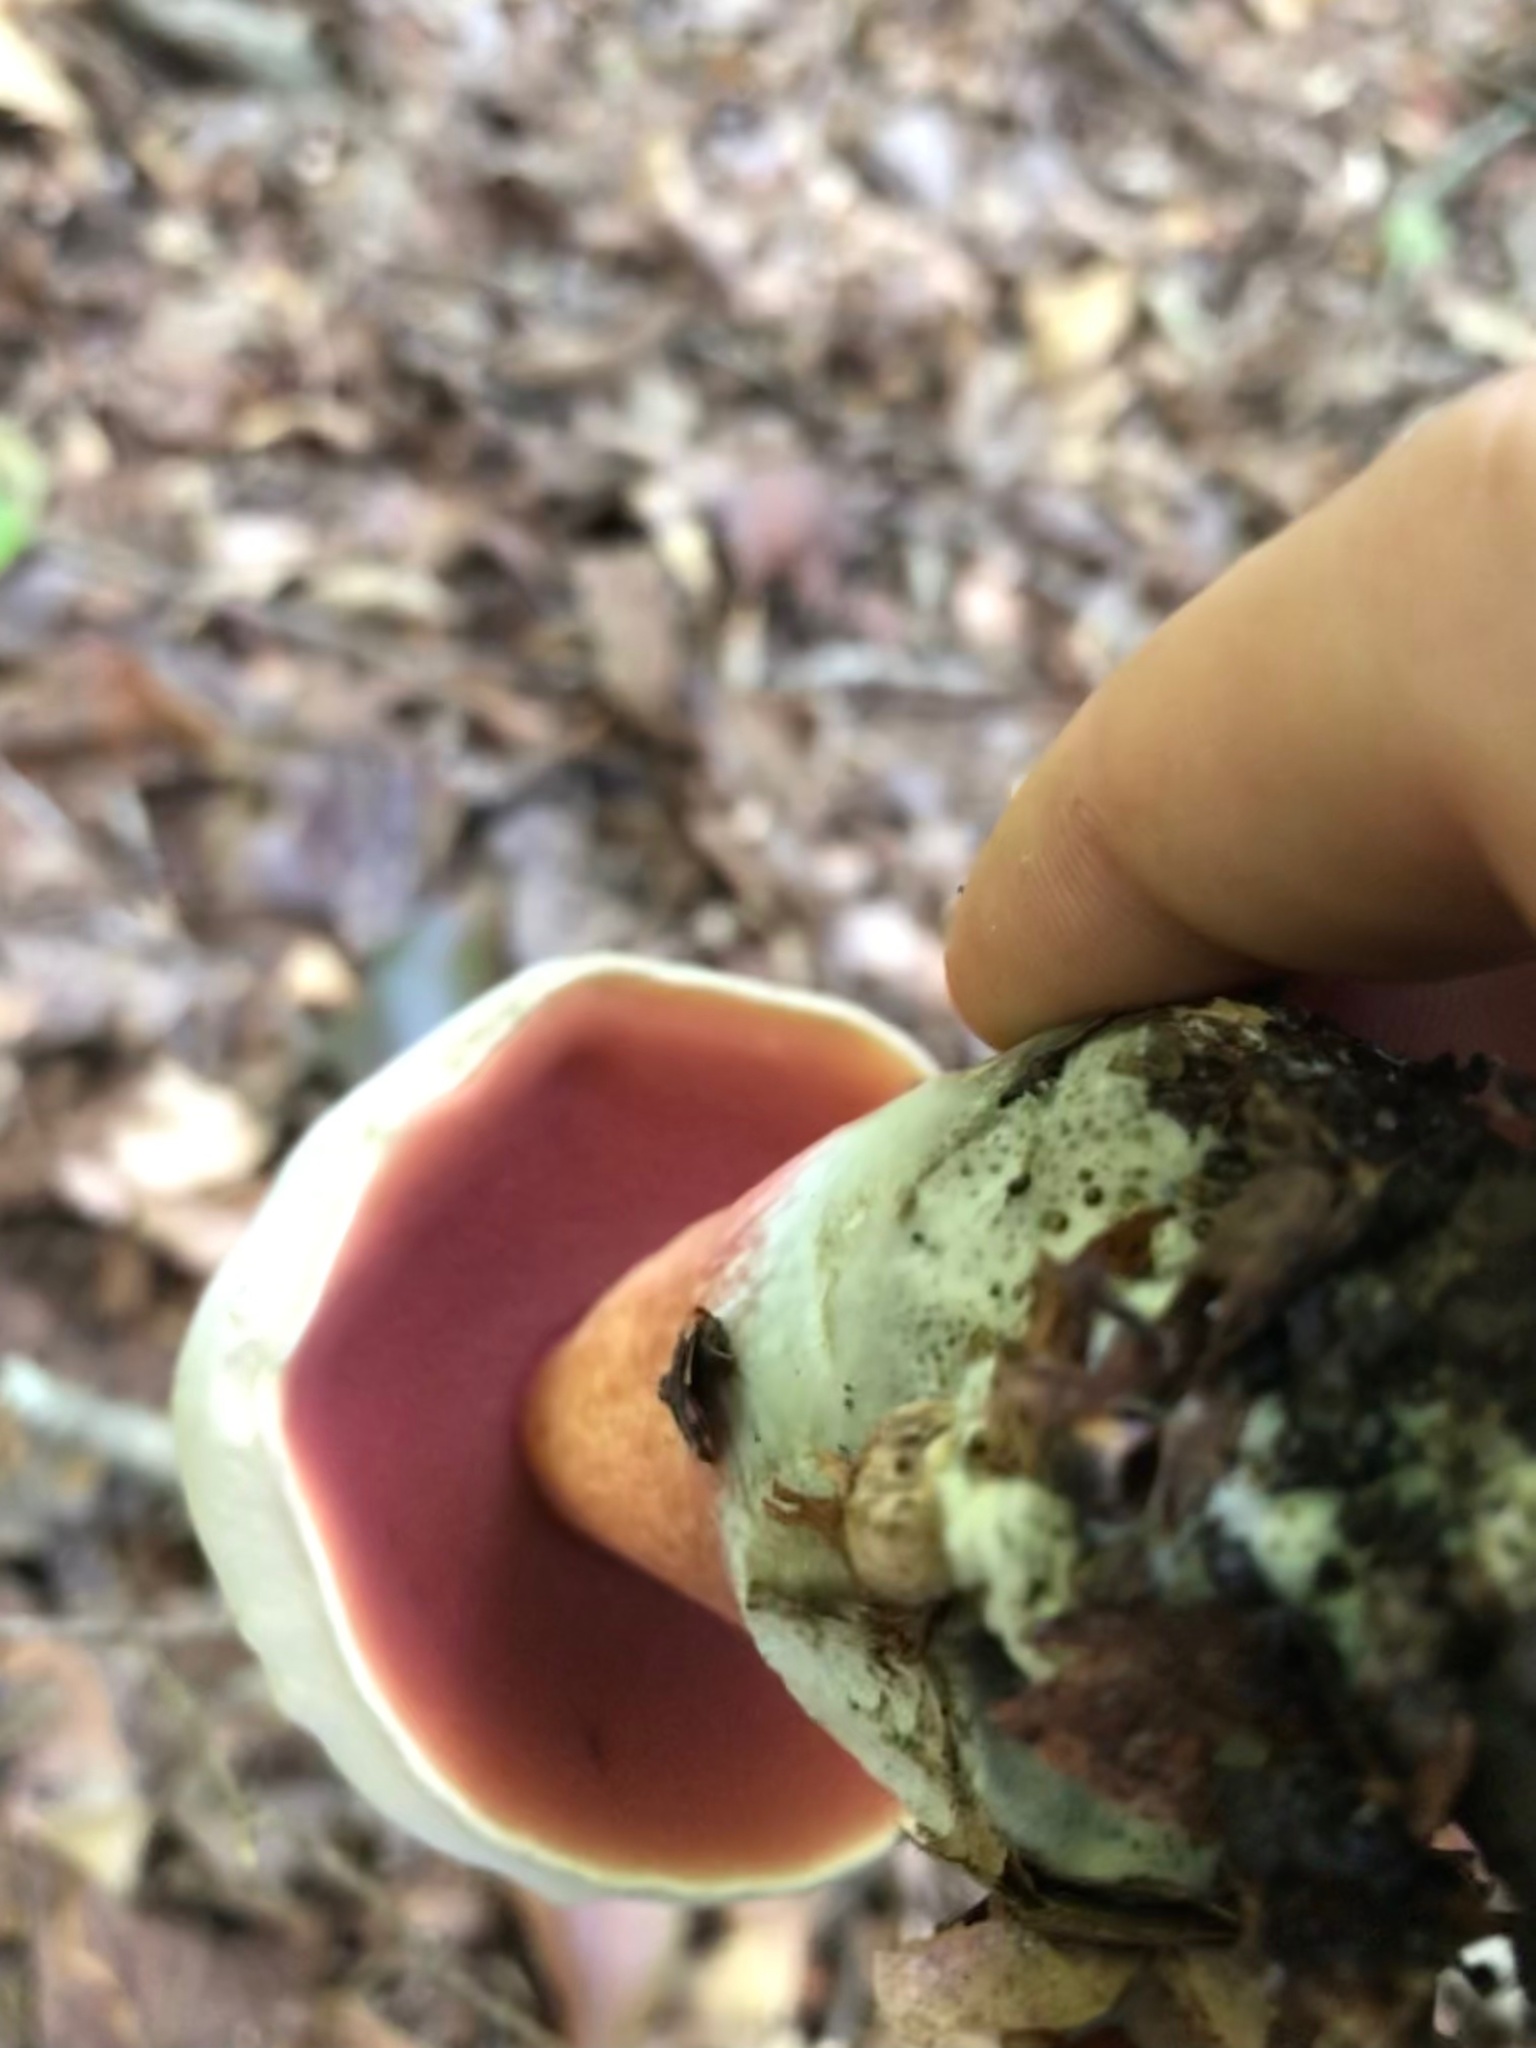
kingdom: Fungi
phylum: Basidiomycota
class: Agaricomycetes
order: Boletales
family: Boletaceae
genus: Caloboletus
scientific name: Caloboletus firmus
